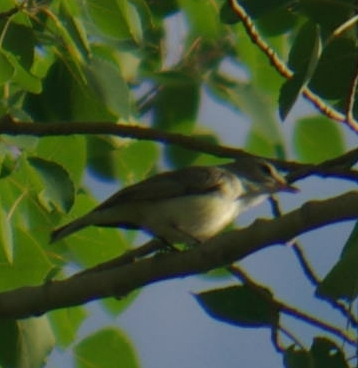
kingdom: Animalia
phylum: Chordata
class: Aves
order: Passeriformes
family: Vireonidae
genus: Vireo
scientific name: Vireo gilvus
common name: Warbling vireo
